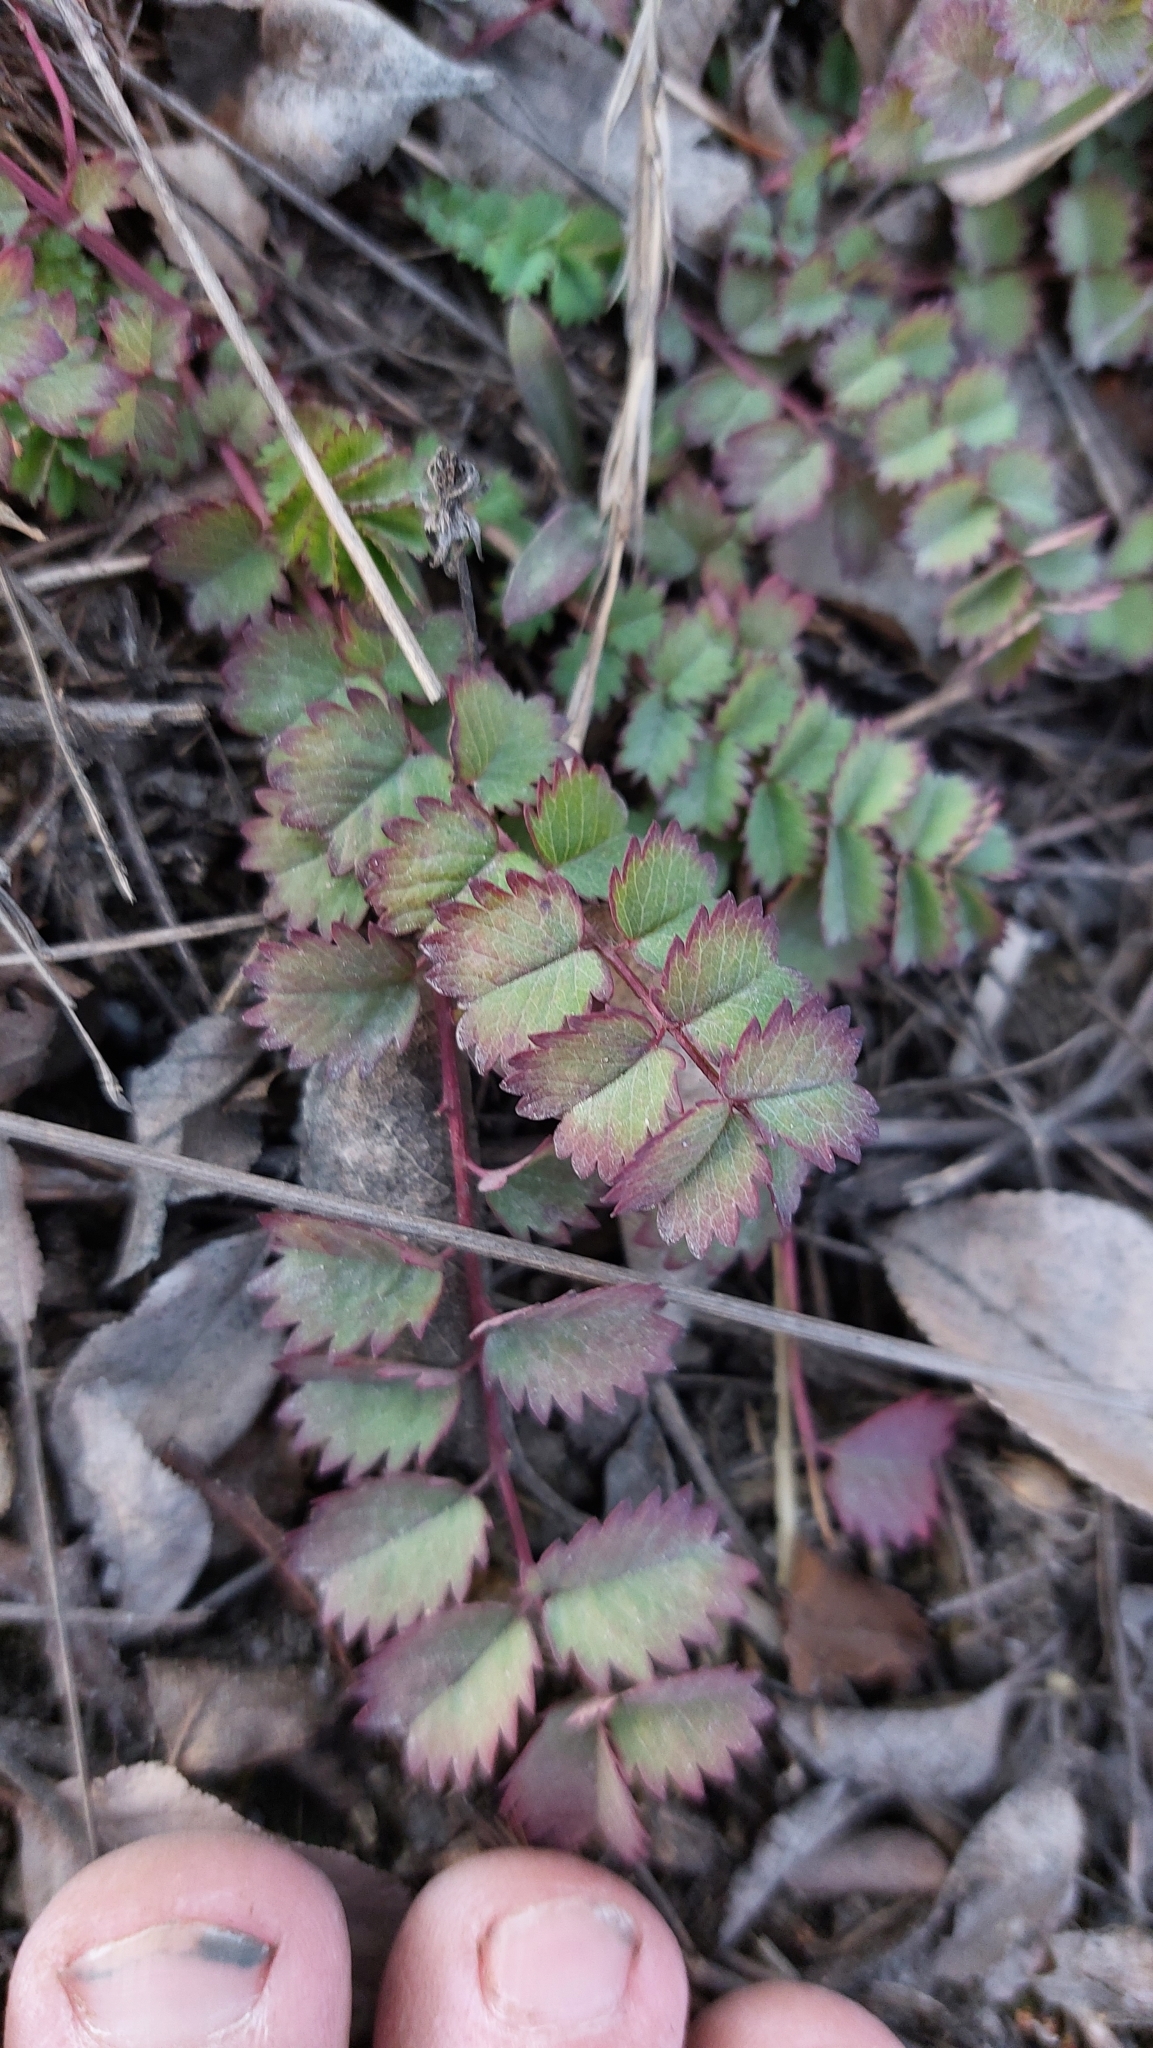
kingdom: Plantae
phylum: Tracheophyta
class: Magnoliopsida
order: Rosales
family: Rosaceae
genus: Poterium
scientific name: Poterium sanguisorba
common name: Salad burnet
